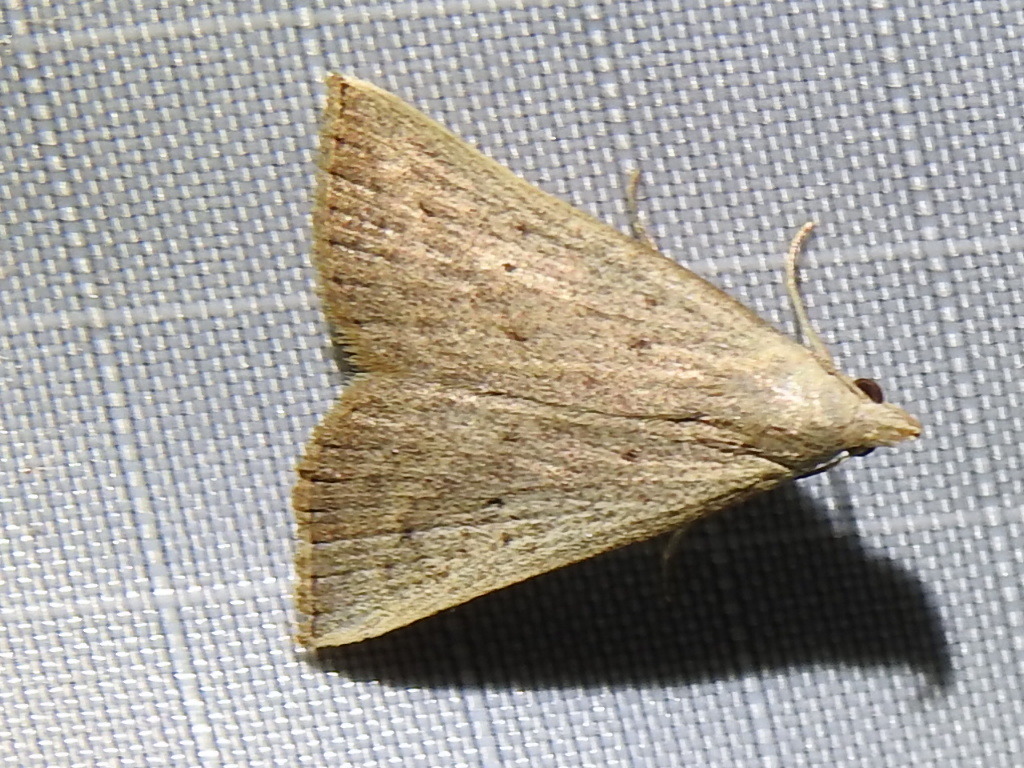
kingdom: Animalia
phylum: Arthropoda
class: Insecta
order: Lepidoptera
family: Erebidae
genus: Macrochilo
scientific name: Macrochilo louisiana
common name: Louisiana macrochilo
